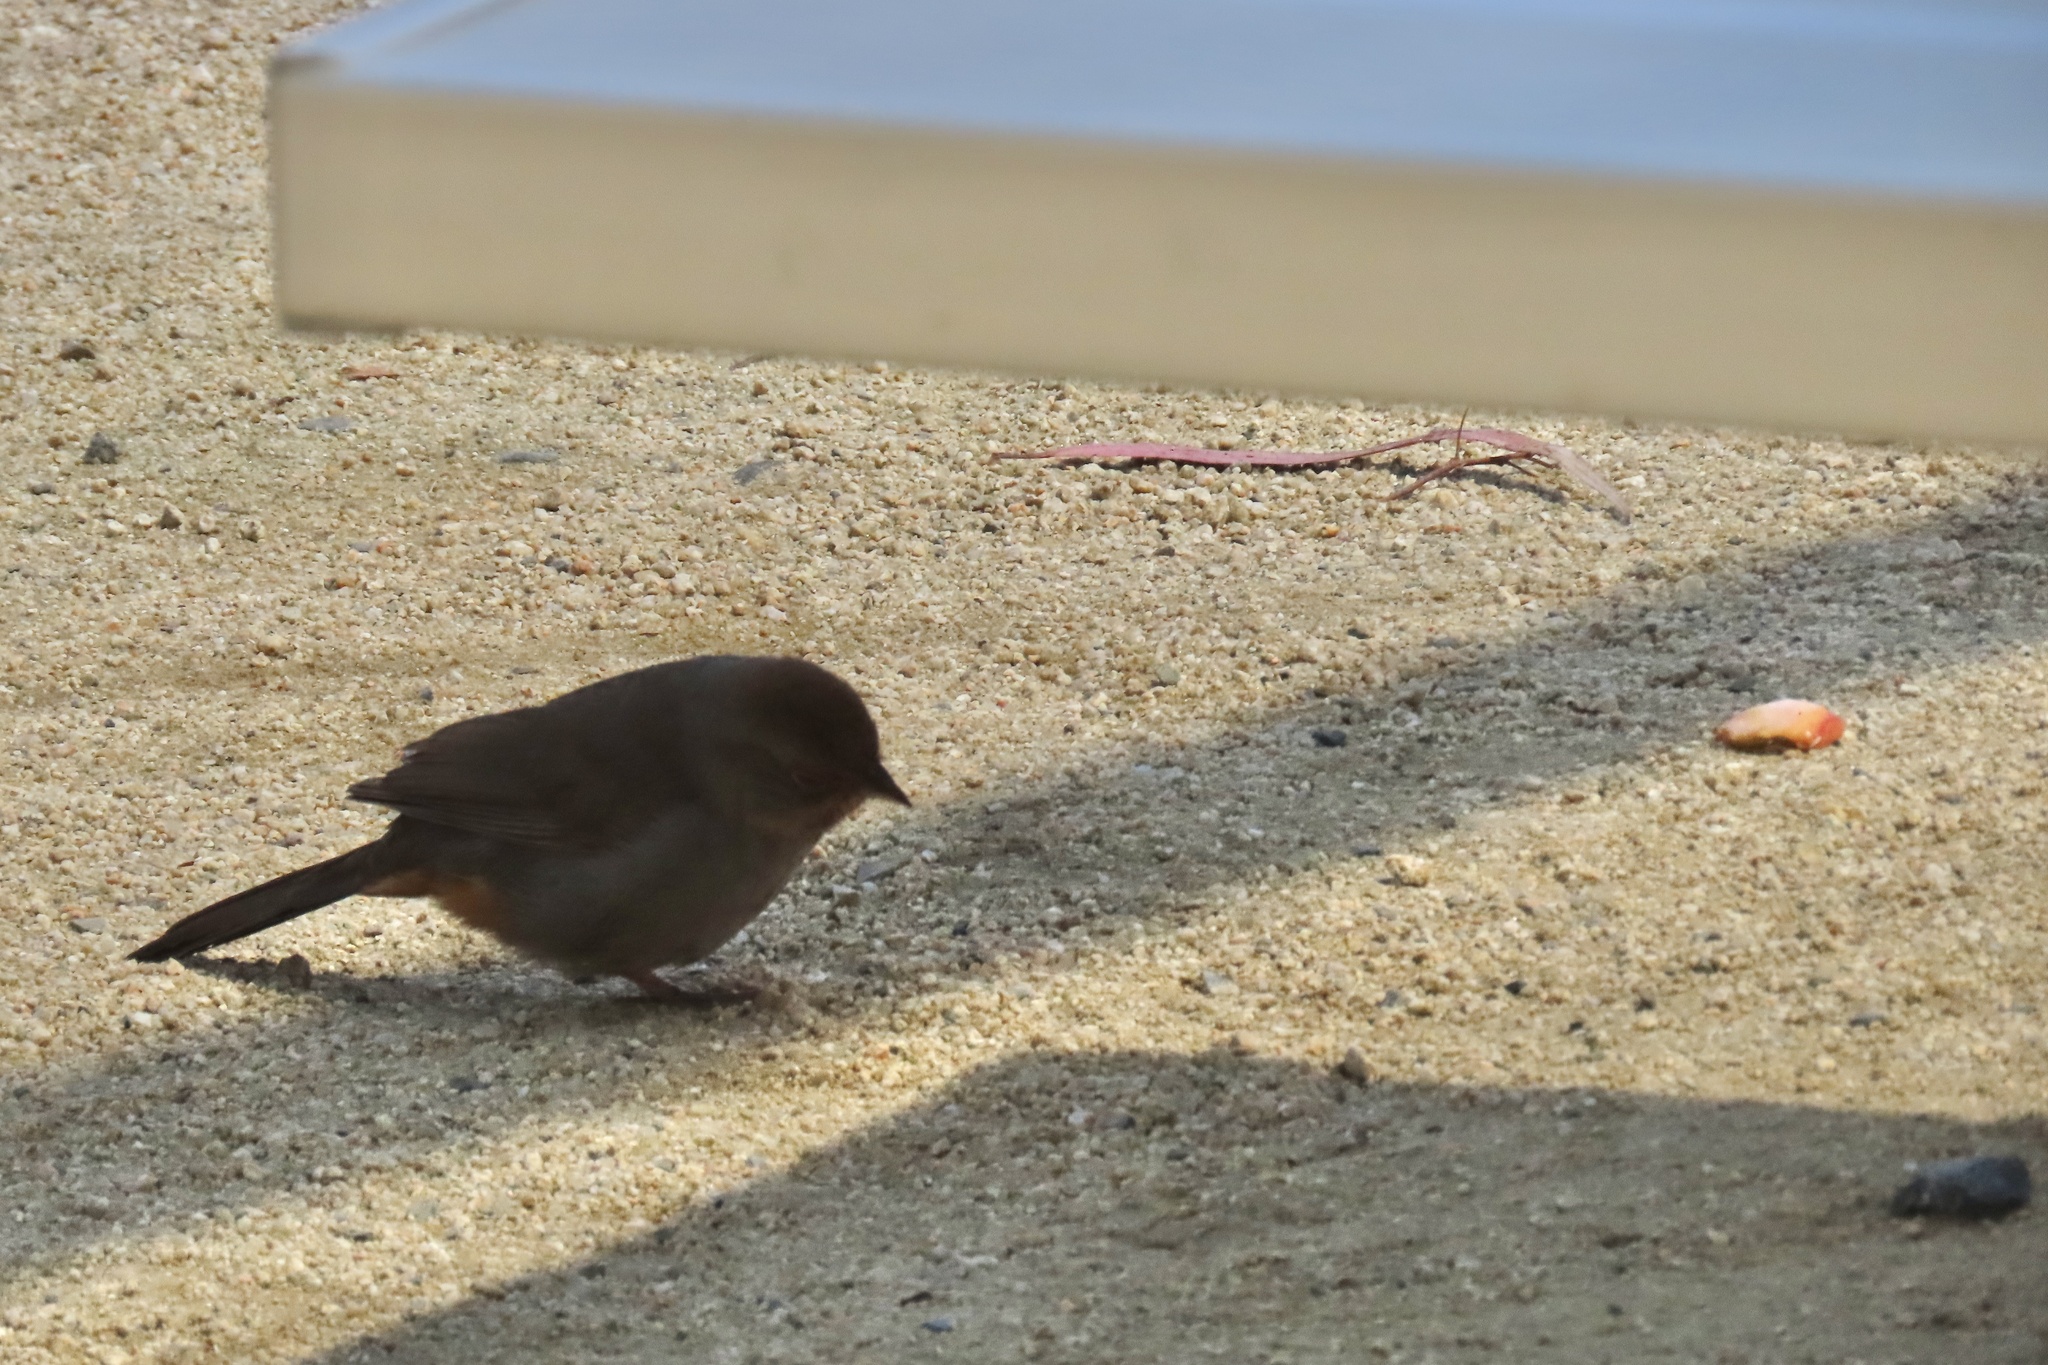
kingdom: Animalia
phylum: Chordata
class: Aves
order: Passeriformes
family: Passerellidae
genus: Melozone
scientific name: Melozone crissalis
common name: California towhee
